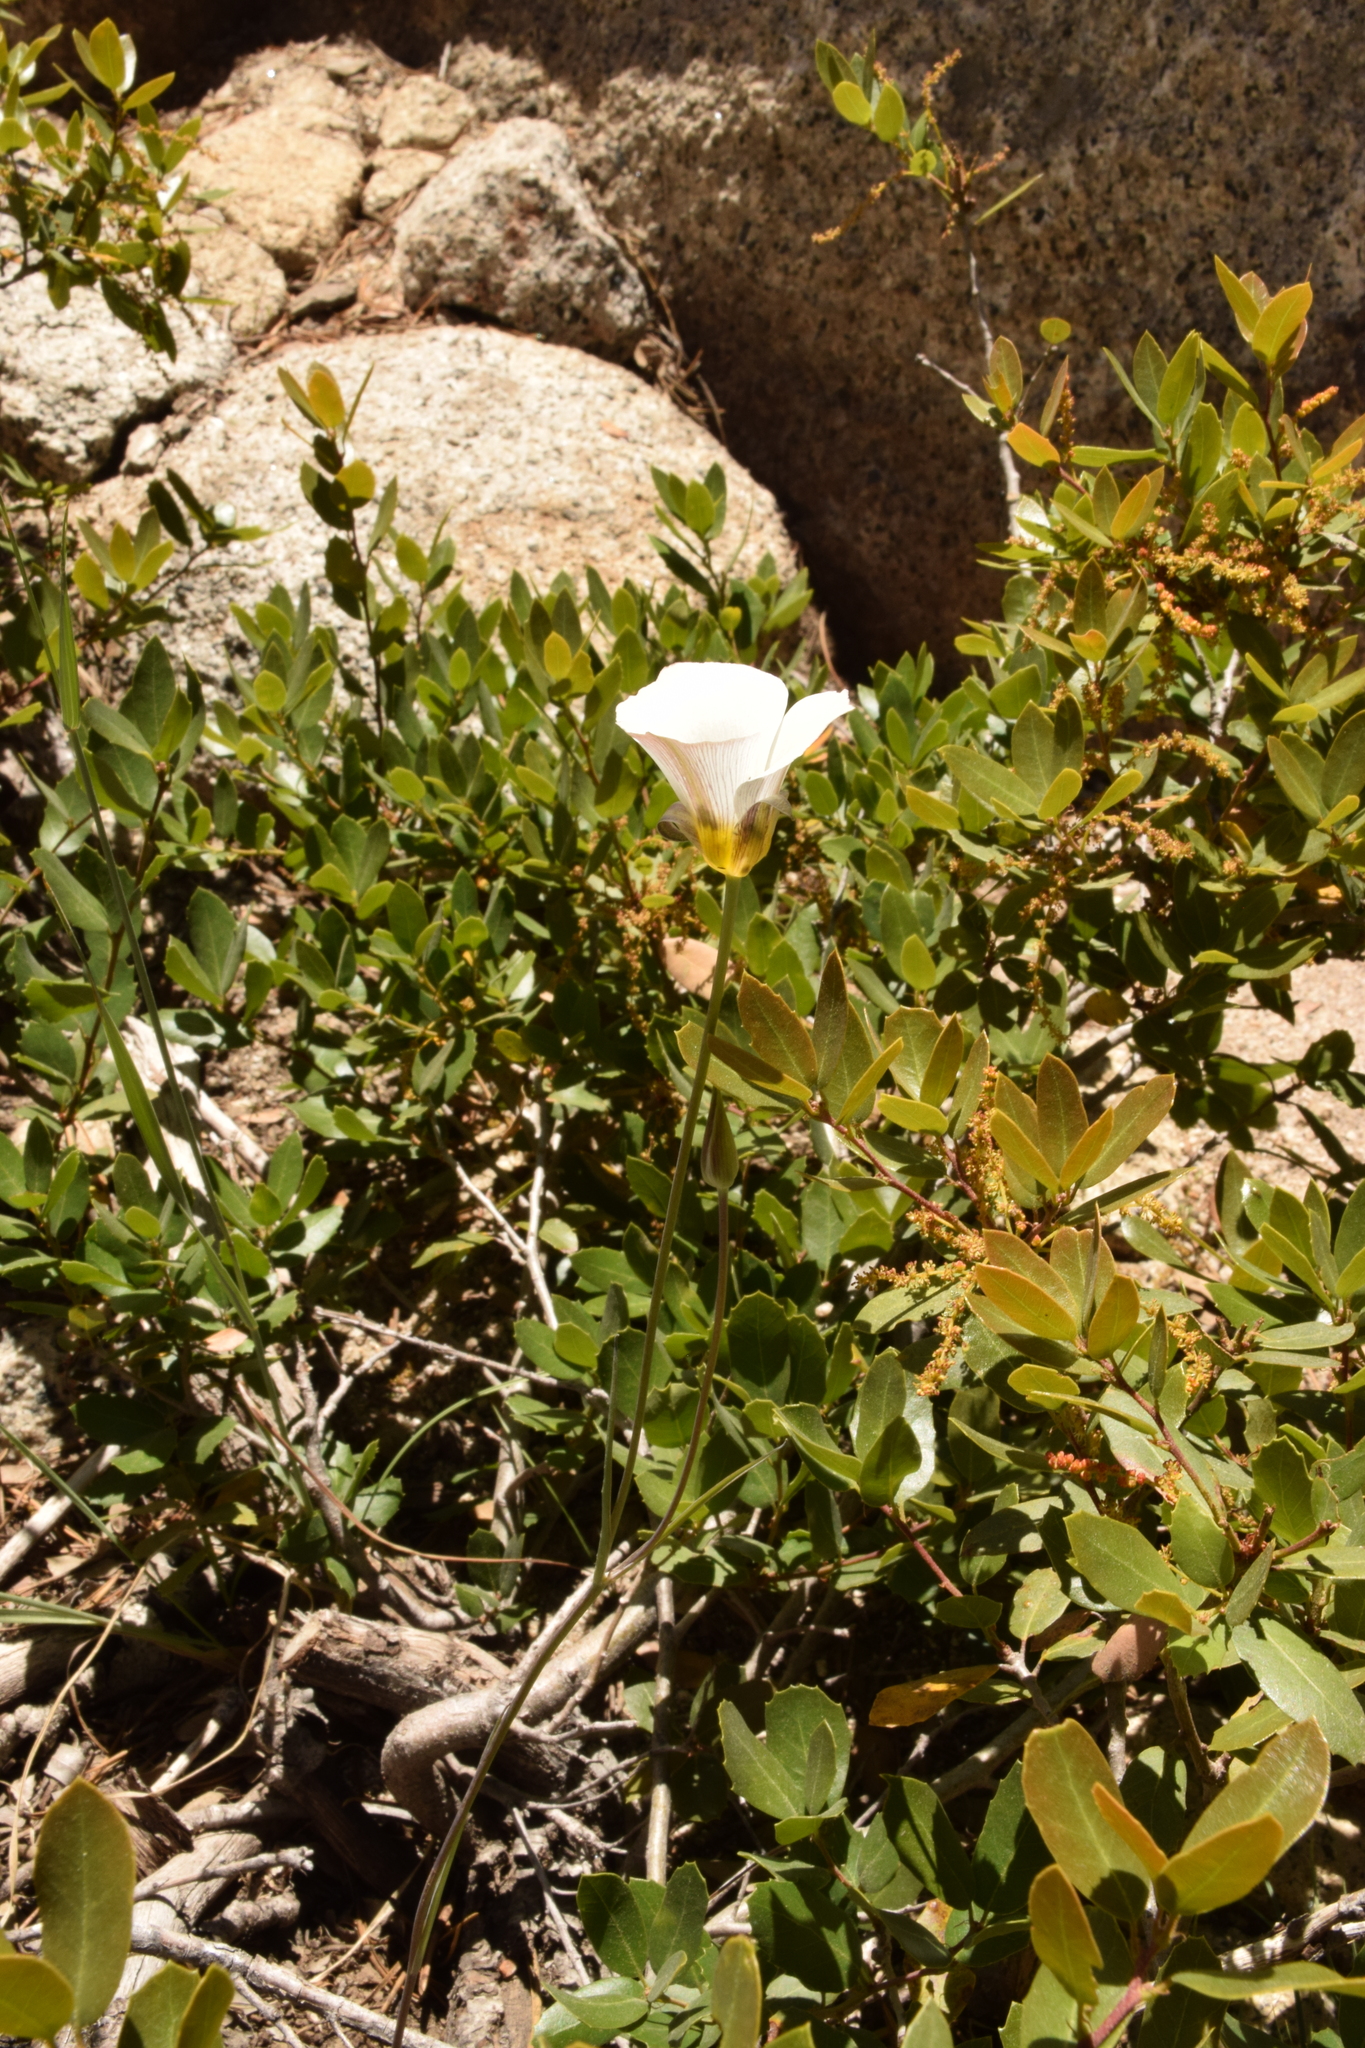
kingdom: Plantae
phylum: Tracheophyta
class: Liliopsida
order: Liliales
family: Liliaceae
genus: Calochortus
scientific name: Calochortus leichtlinii
